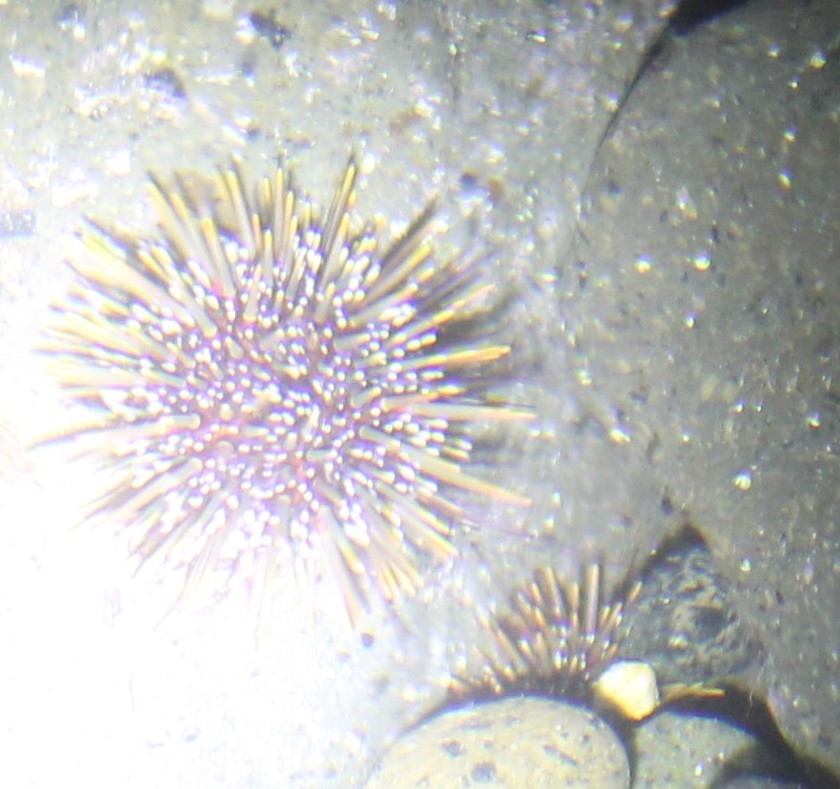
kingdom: Animalia
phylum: Echinodermata
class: Echinoidea
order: Camarodonta
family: Echinometridae
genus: Evechinus
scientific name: Evechinus chloroticus
